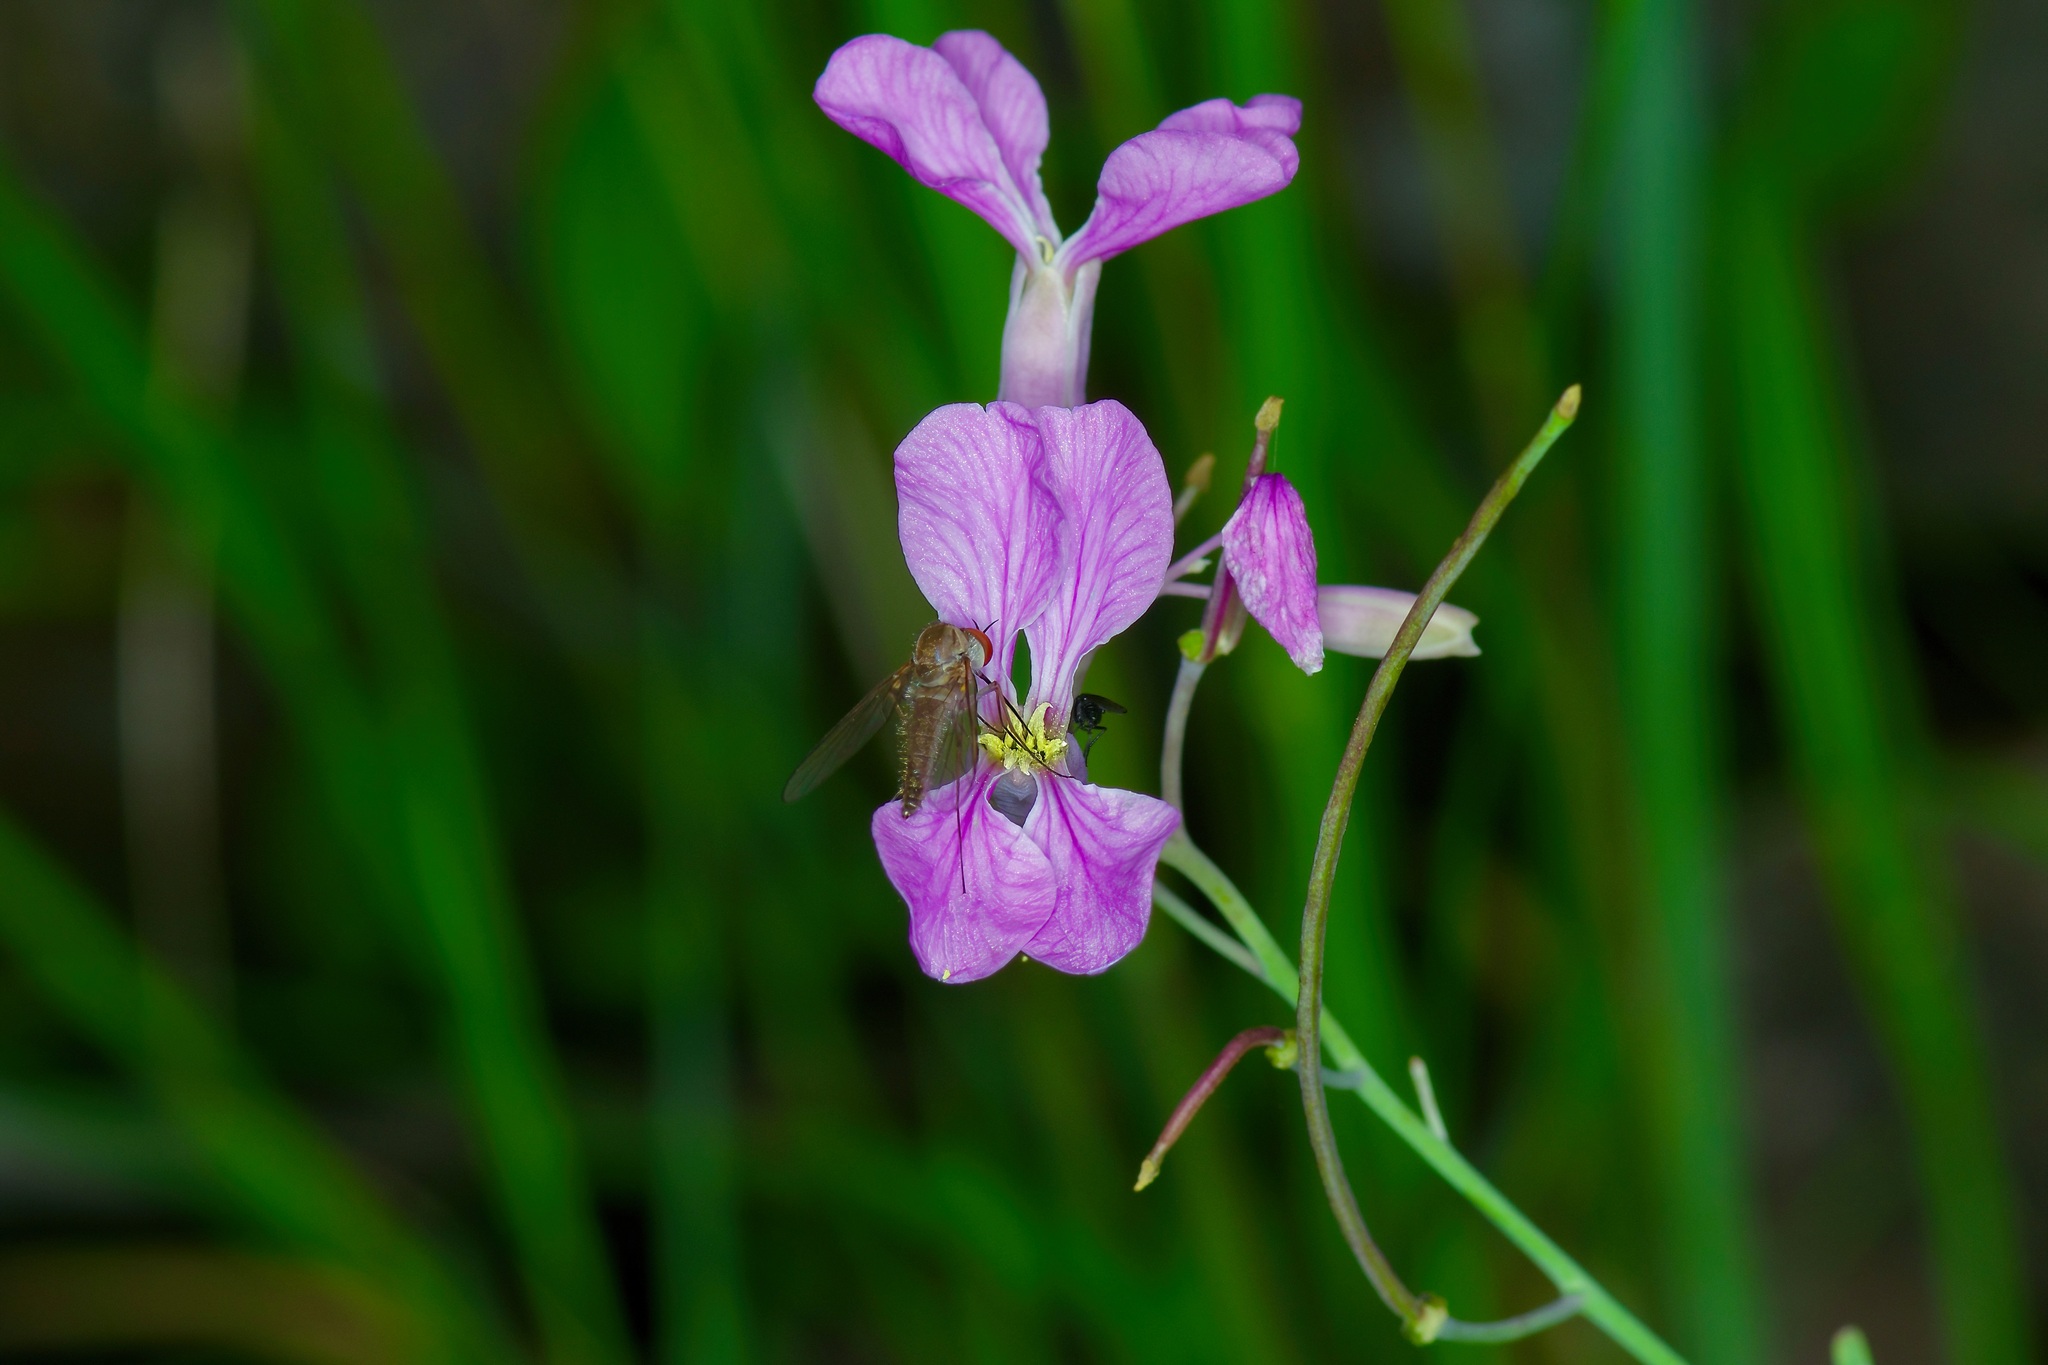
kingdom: Plantae
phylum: Tracheophyta
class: Magnoliopsida
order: Brassicales
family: Brassicaceae
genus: Hesperidanthus
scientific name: Hesperidanthus linearifolius
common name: Slim-leaf plains mustard
